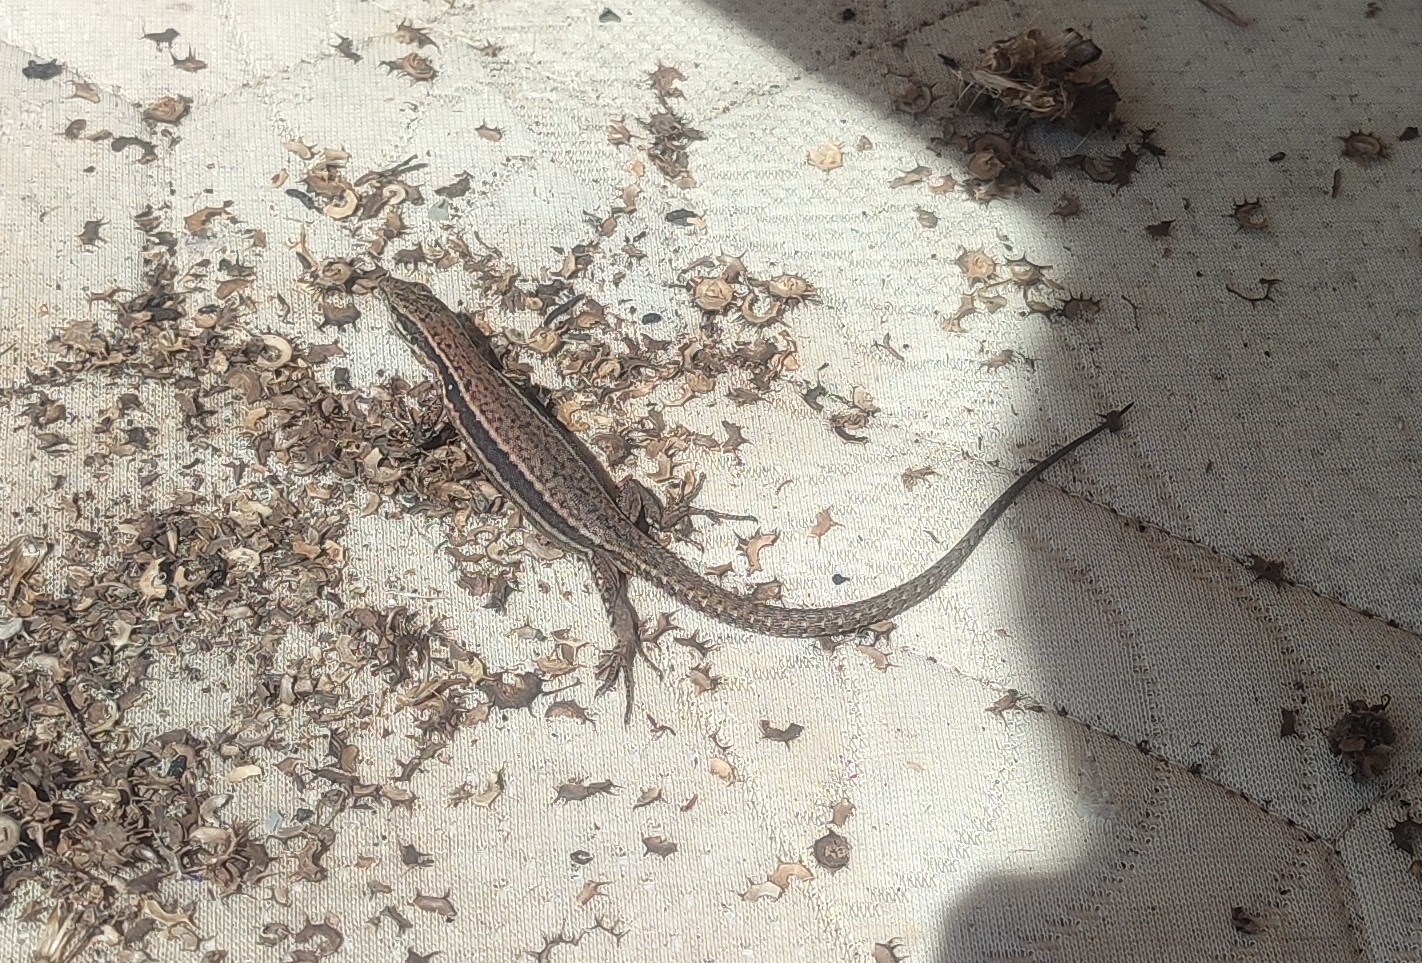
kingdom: Animalia
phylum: Chordata
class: Squamata
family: Lacertidae
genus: Podarcis
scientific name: Podarcis muralis
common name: Common wall lizard
